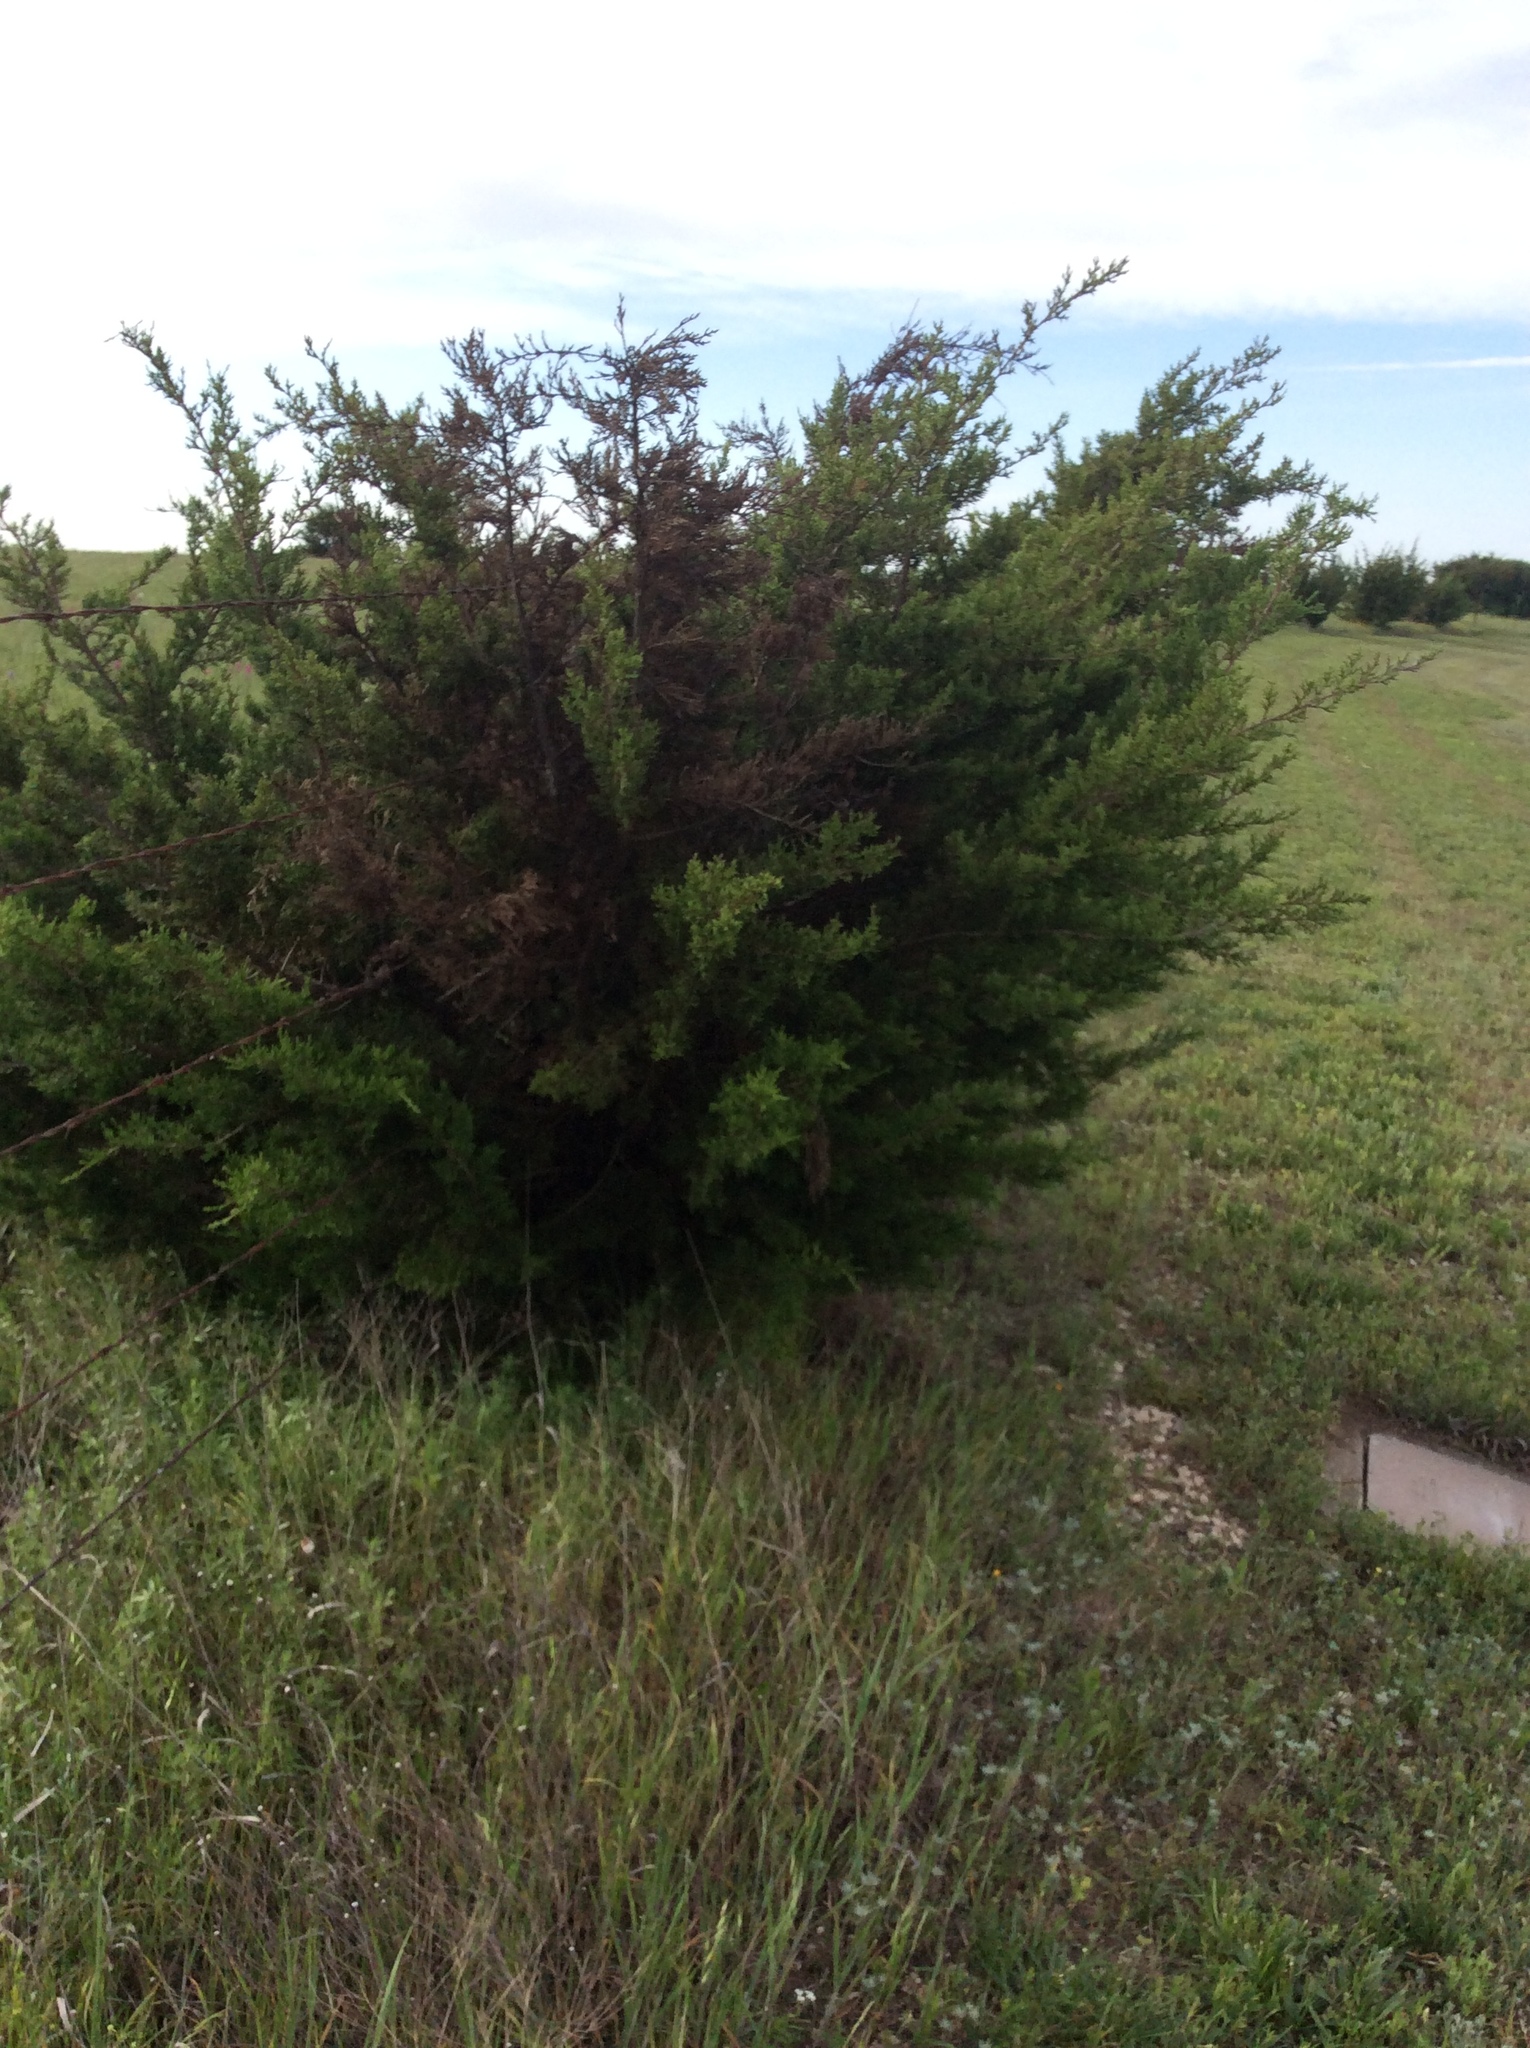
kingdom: Plantae
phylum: Tracheophyta
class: Pinopsida
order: Pinales
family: Cupressaceae
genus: Juniperus
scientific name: Juniperus ashei
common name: Mexican juniper
